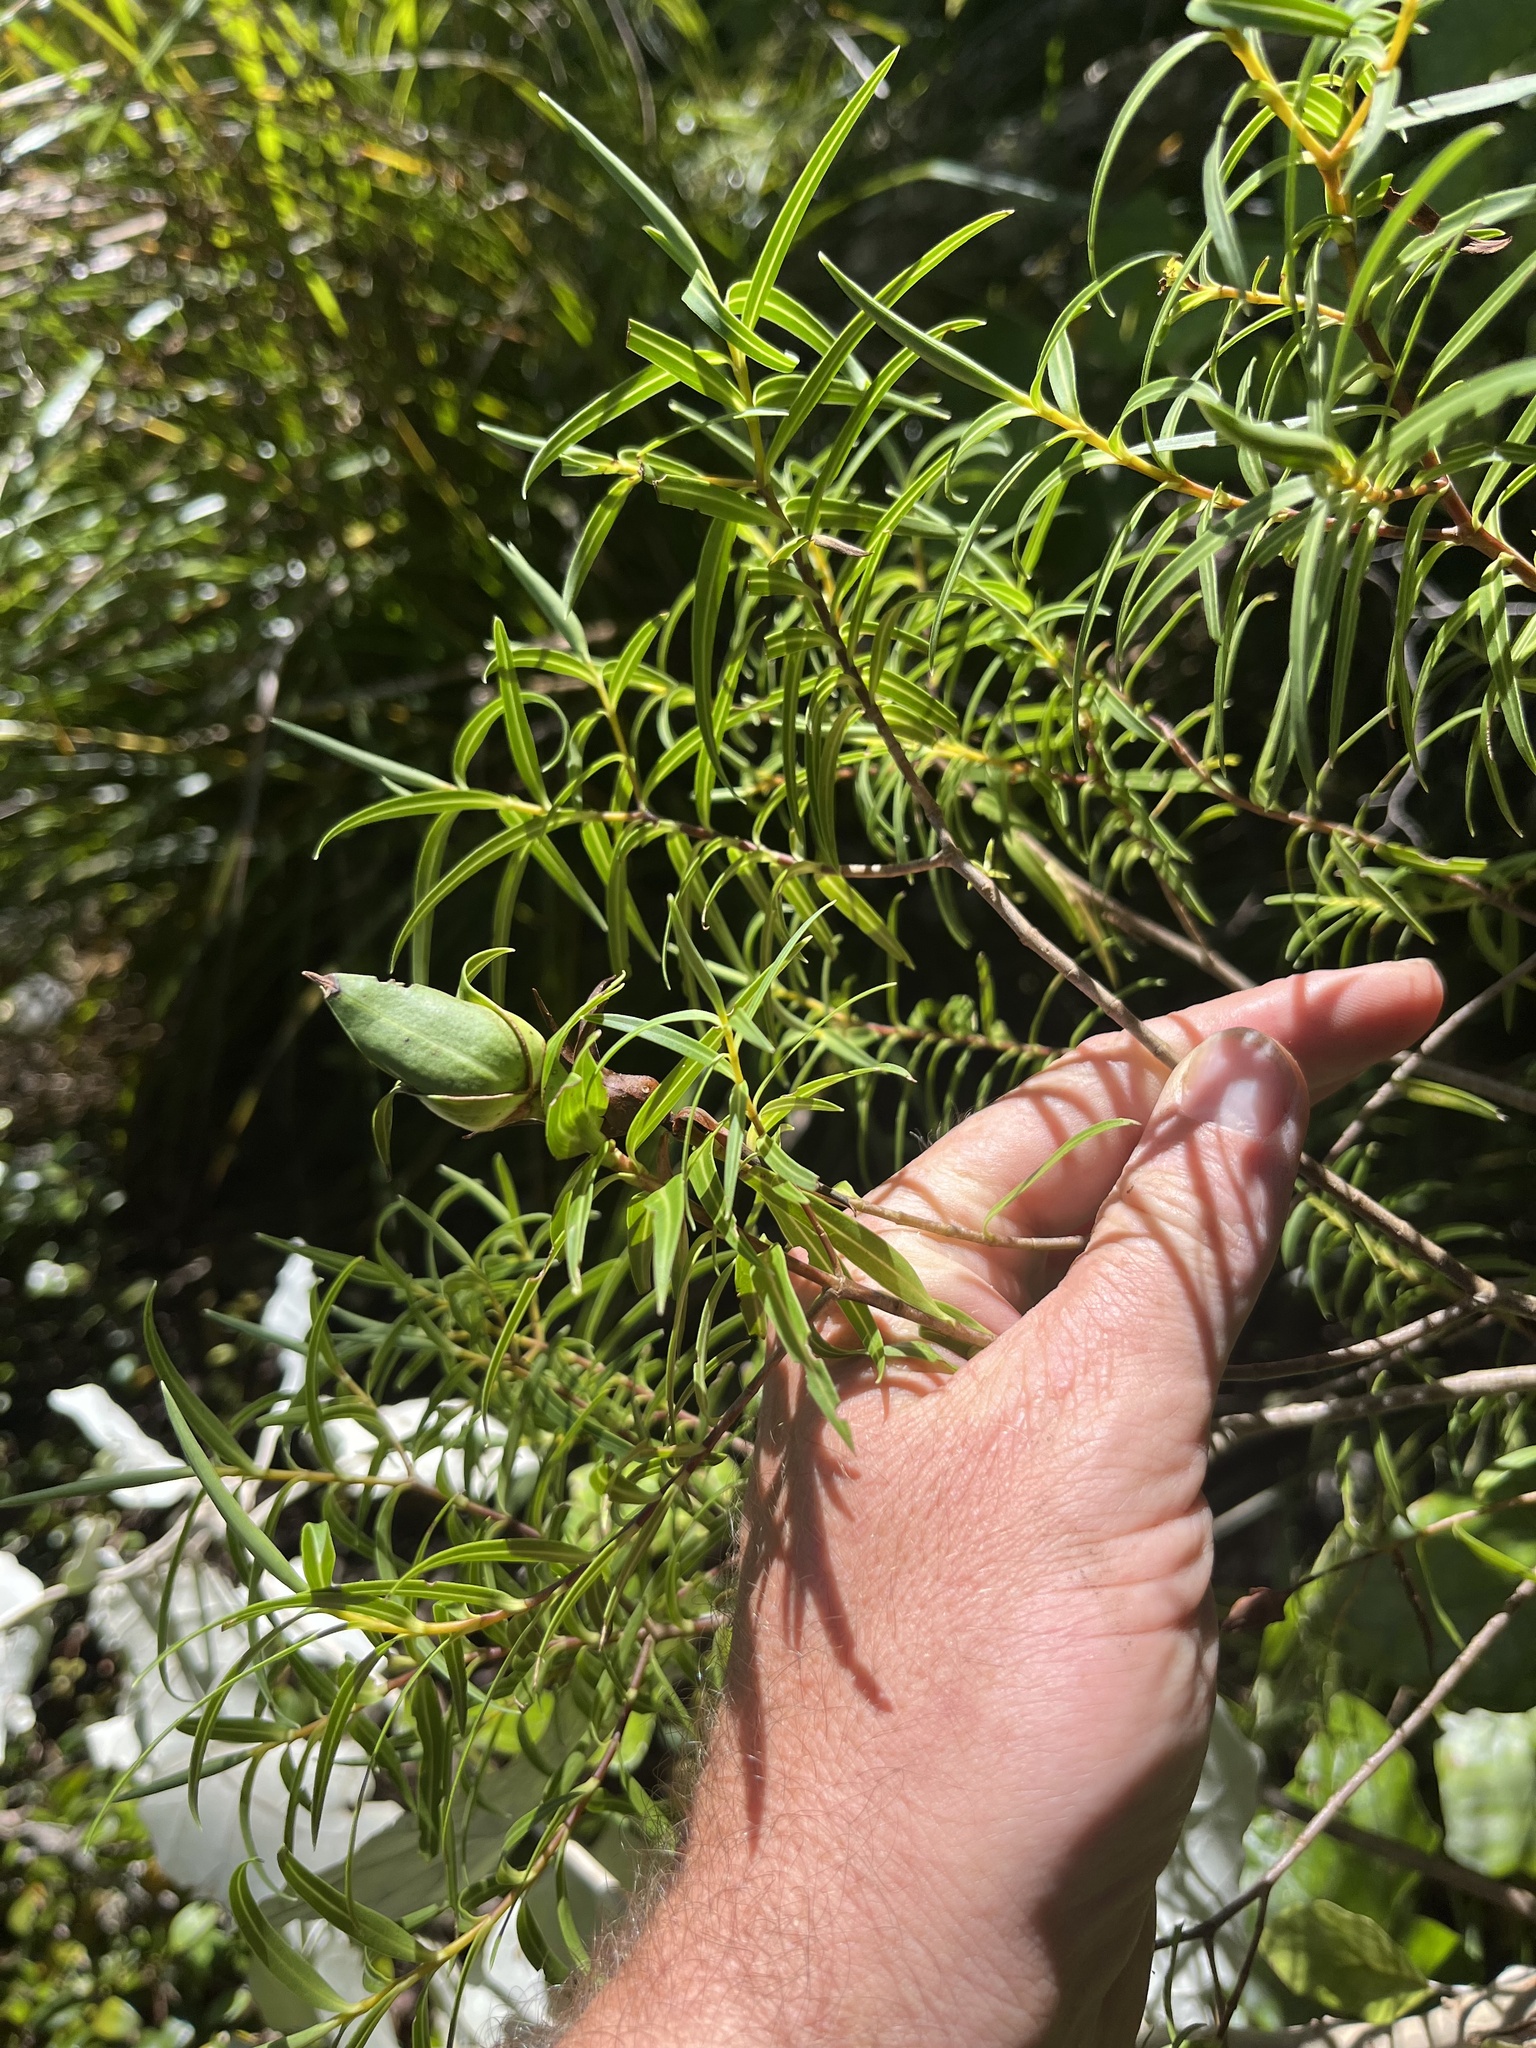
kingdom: Plantae
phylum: Tracheophyta
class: Magnoliopsida
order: Lamiales
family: Plantaginaceae
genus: Veronica
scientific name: Veronica parviflora
